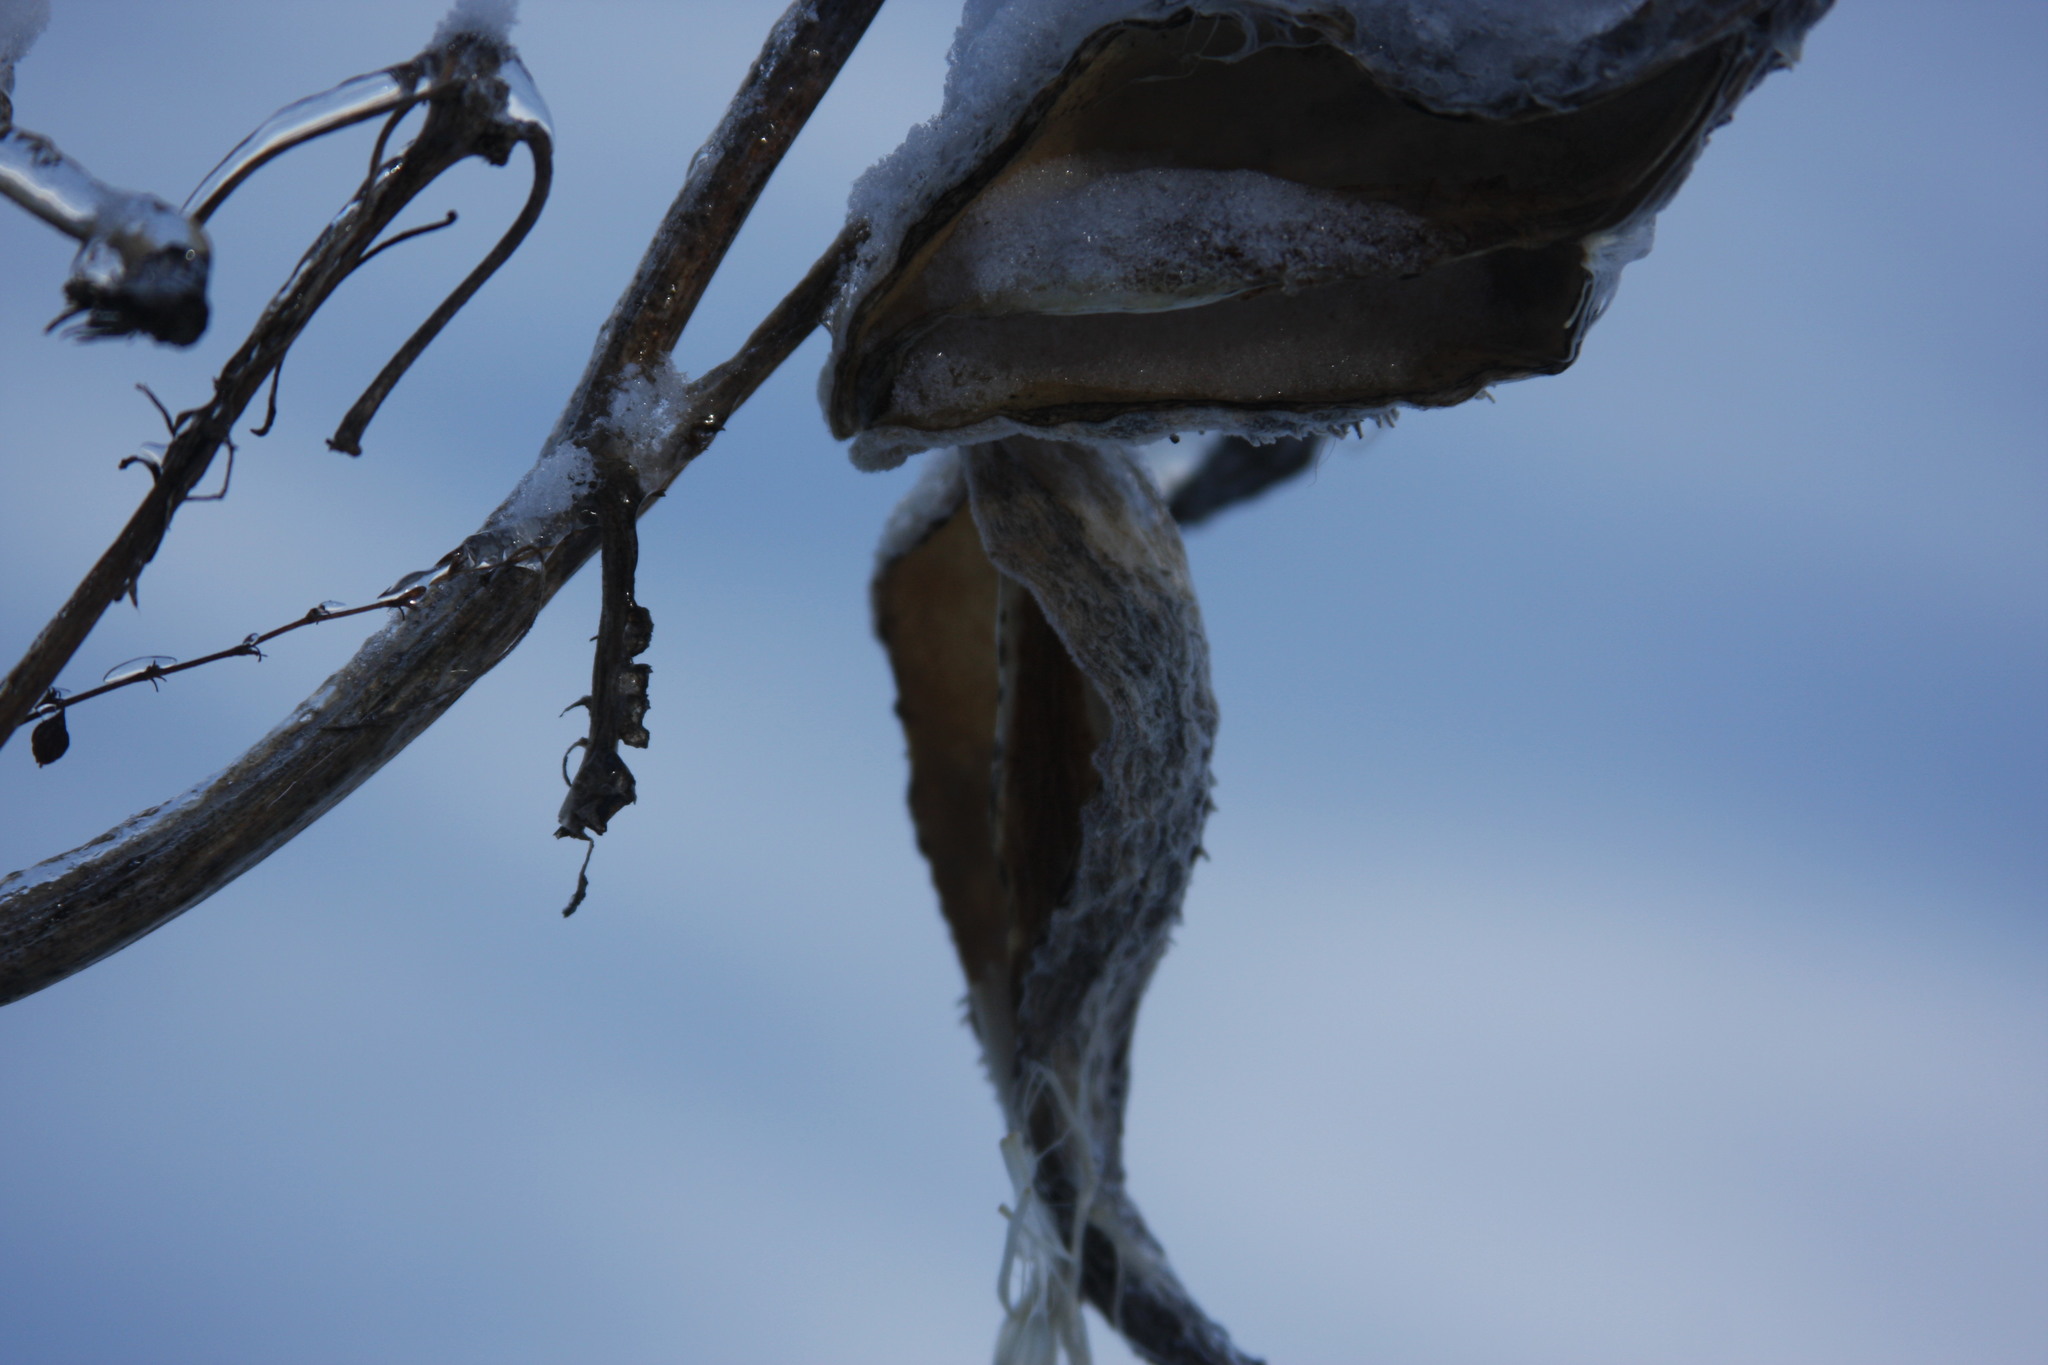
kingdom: Plantae
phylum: Tracheophyta
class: Magnoliopsida
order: Gentianales
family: Apocynaceae
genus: Asclepias
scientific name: Asclepias syriaca
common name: Common milkweed
